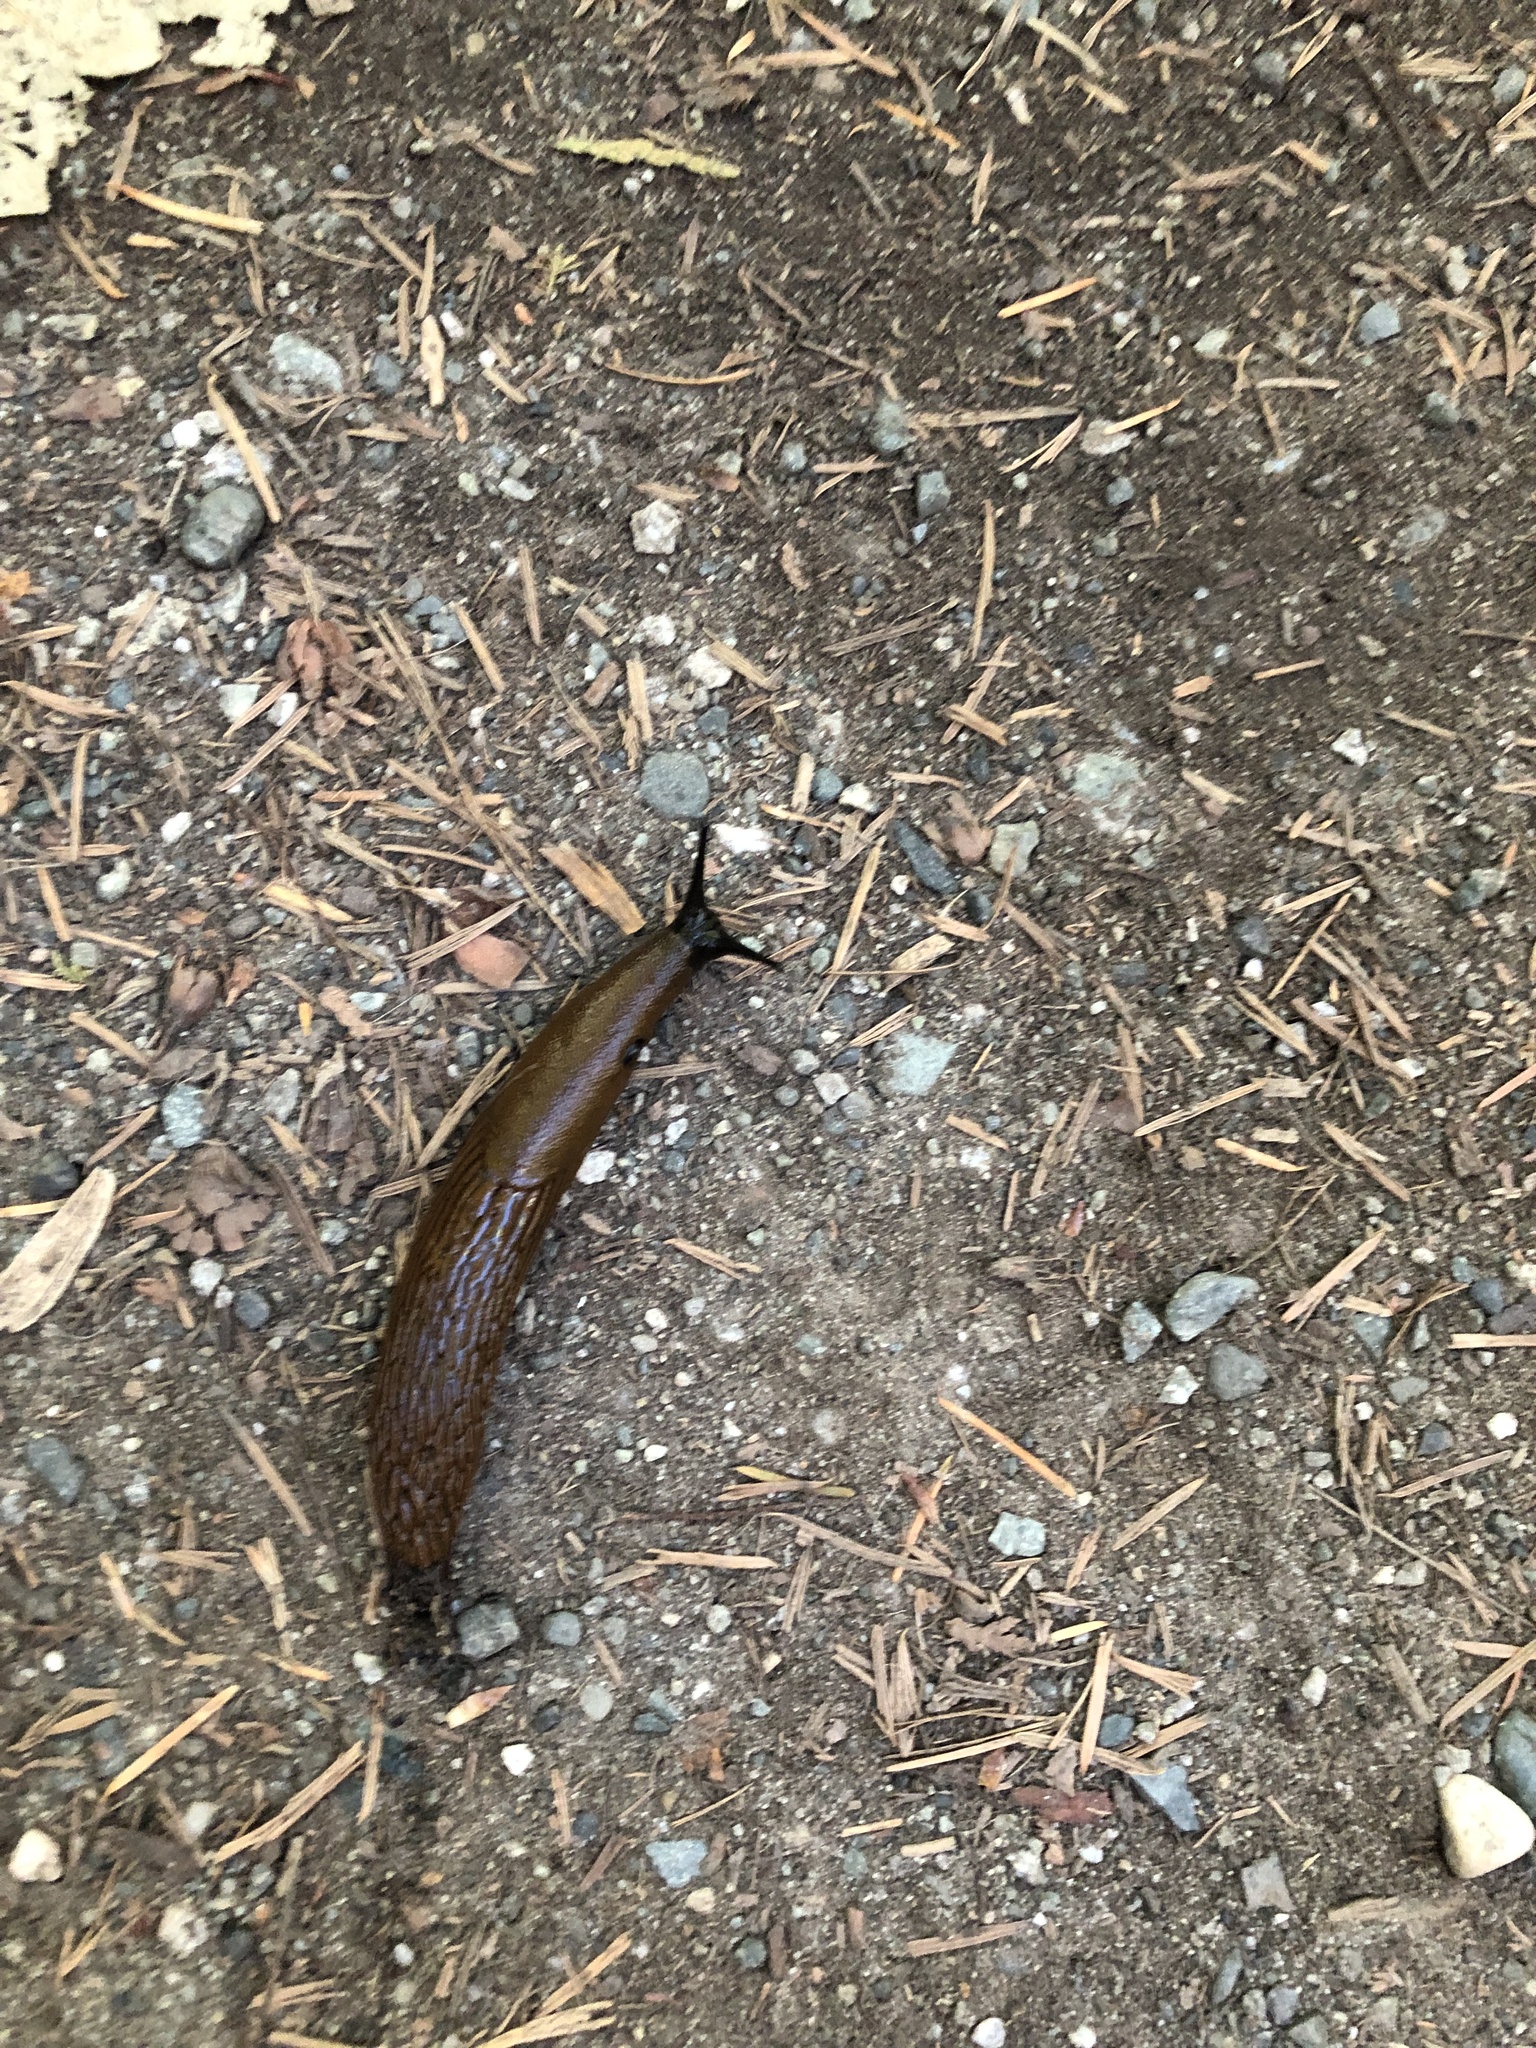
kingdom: Animalia
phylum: Mollusca
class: Gastropoda
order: Stylommatophora
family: Arionidae
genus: Arion
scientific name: Arion
